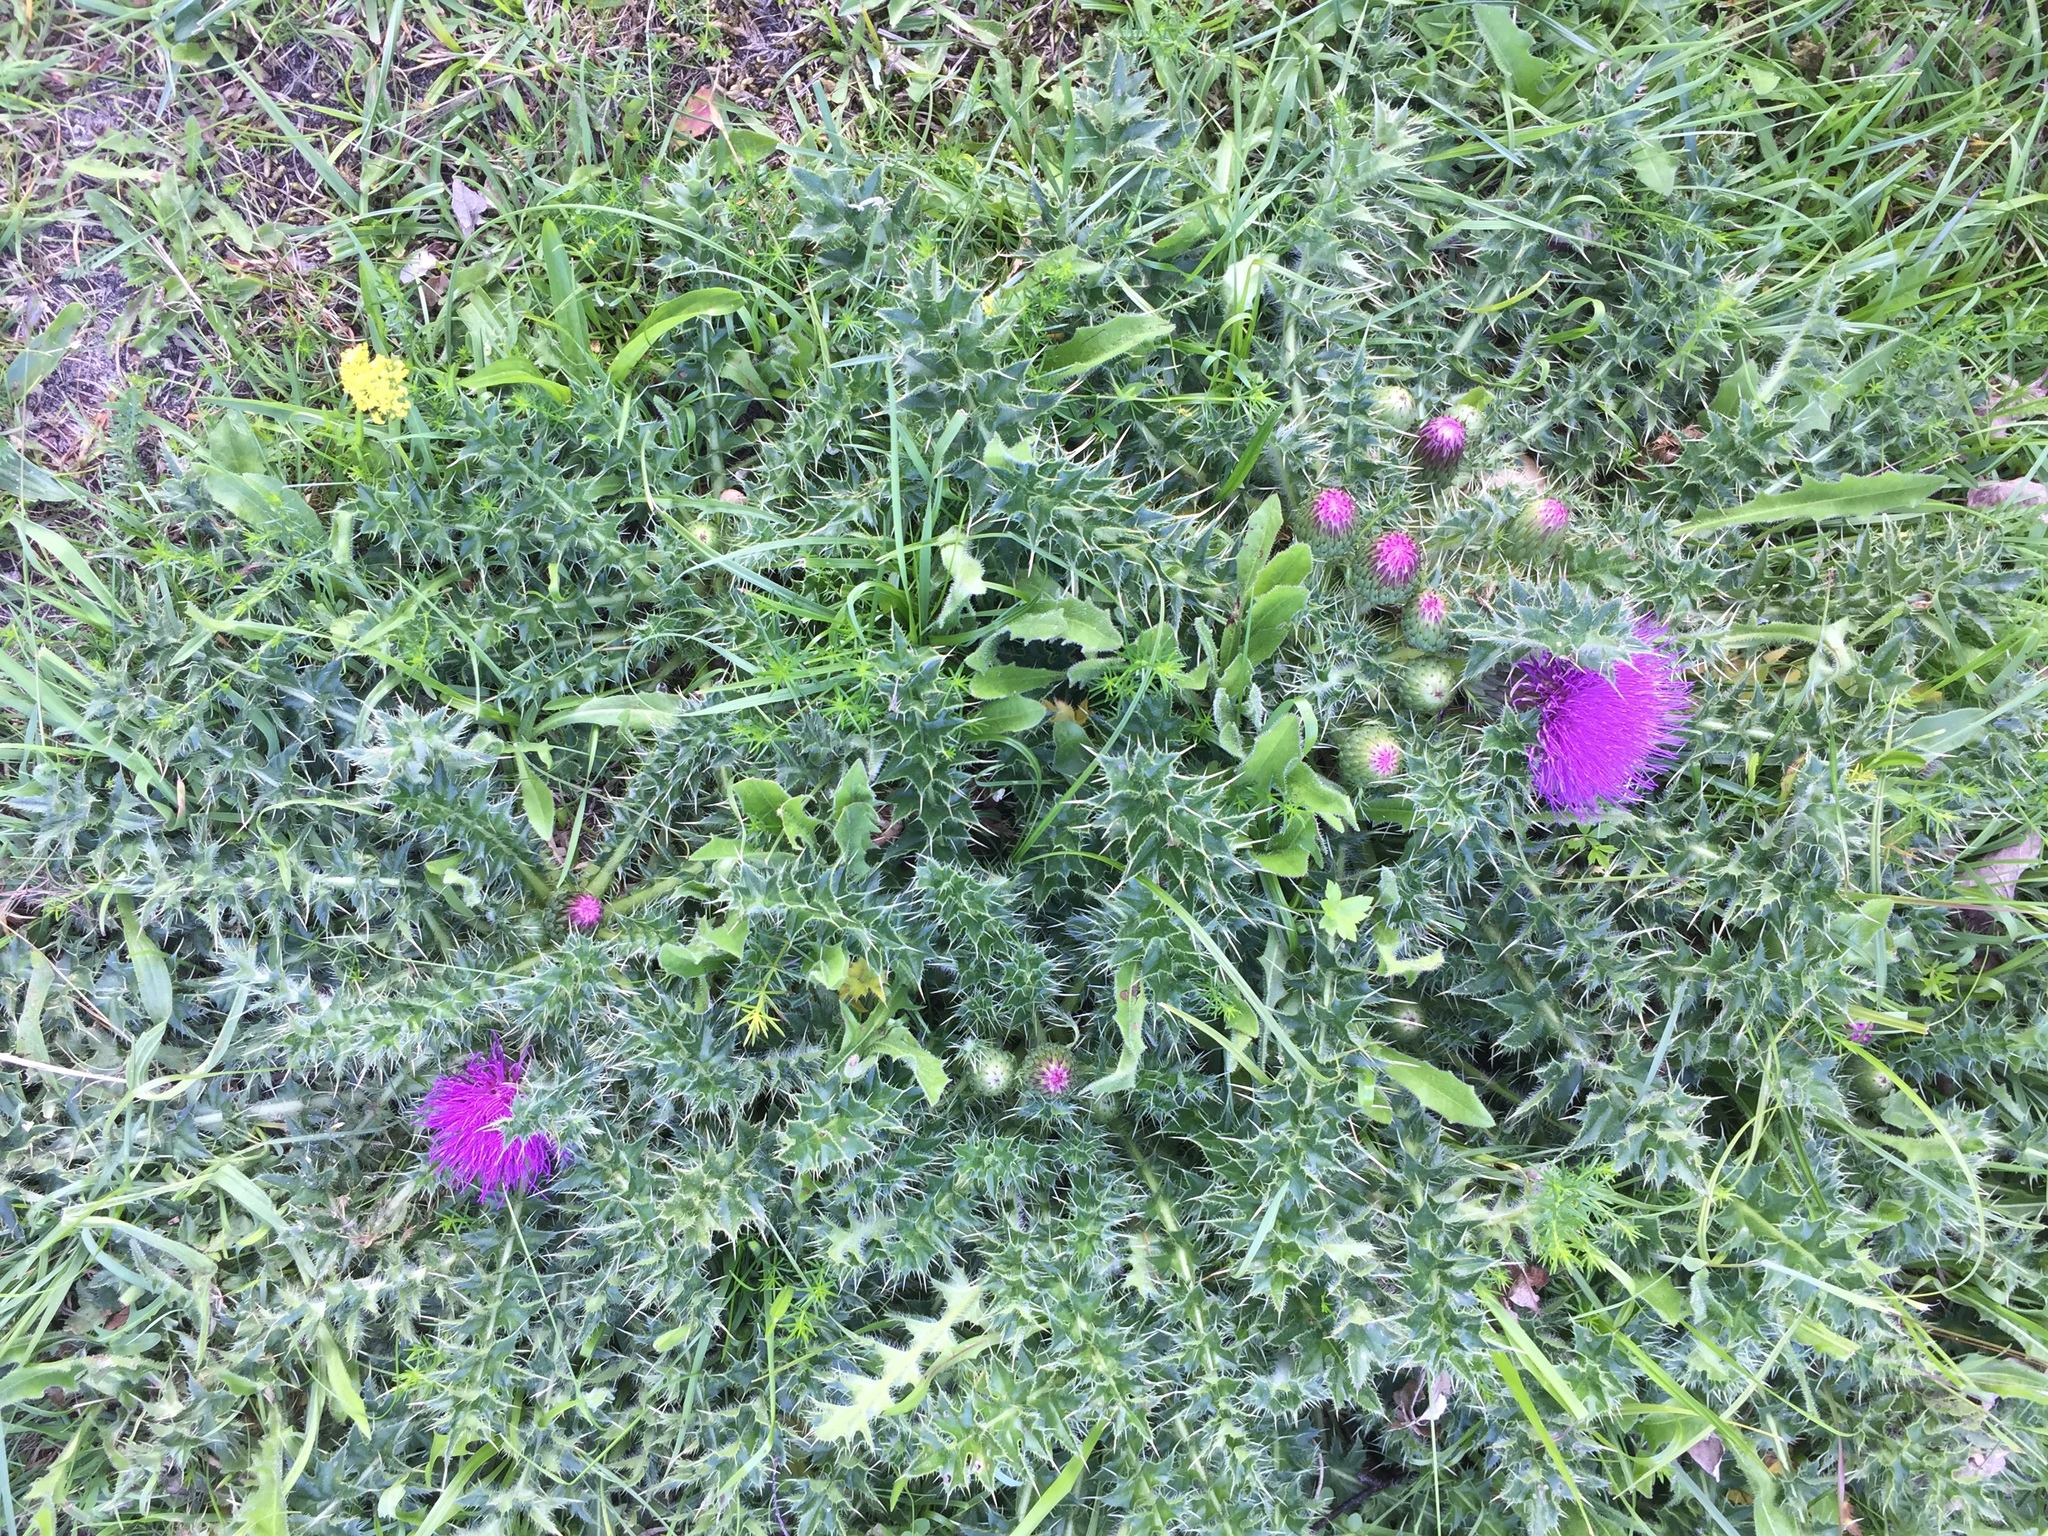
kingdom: Plantae
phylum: Tracheophyta
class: Magnoliopsida
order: Asterales
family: Asteraceae
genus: Cirsium
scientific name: Cirsium acaulon
